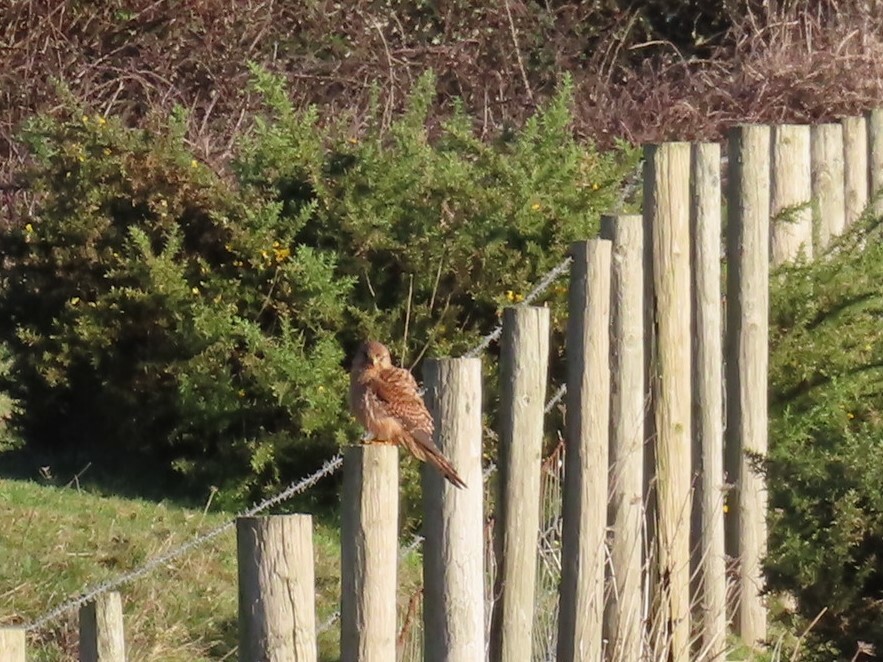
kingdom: Animalia
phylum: Chordata
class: Aves
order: Falconiformes
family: Falconidae
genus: Falco
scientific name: Falco tinnunculus
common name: Common kestrel
